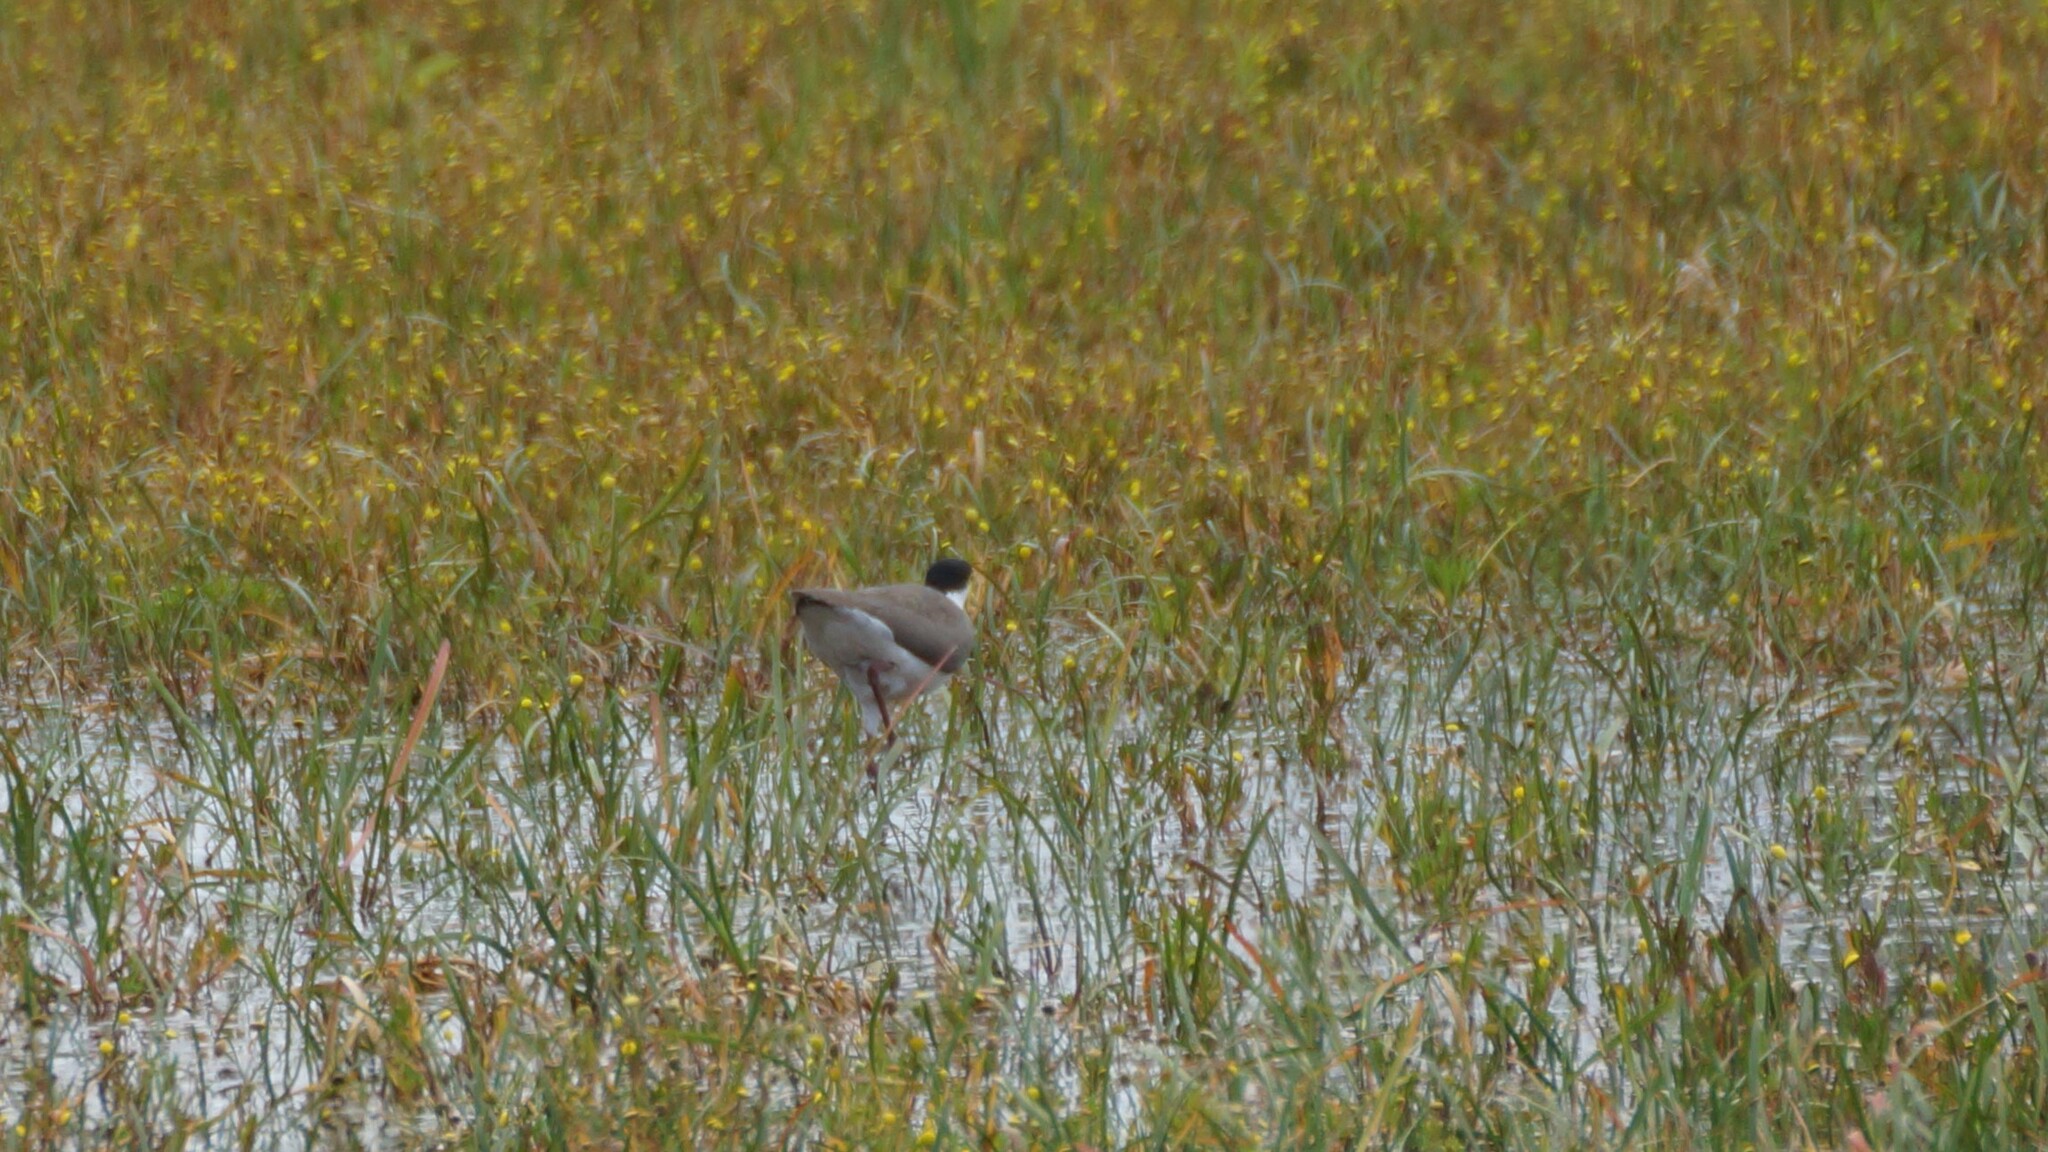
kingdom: Animalia
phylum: Chordata
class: Aves
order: Charadriiformes
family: Charadriidae
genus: Vanellus
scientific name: Vanellus miles
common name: Masked lapwing
